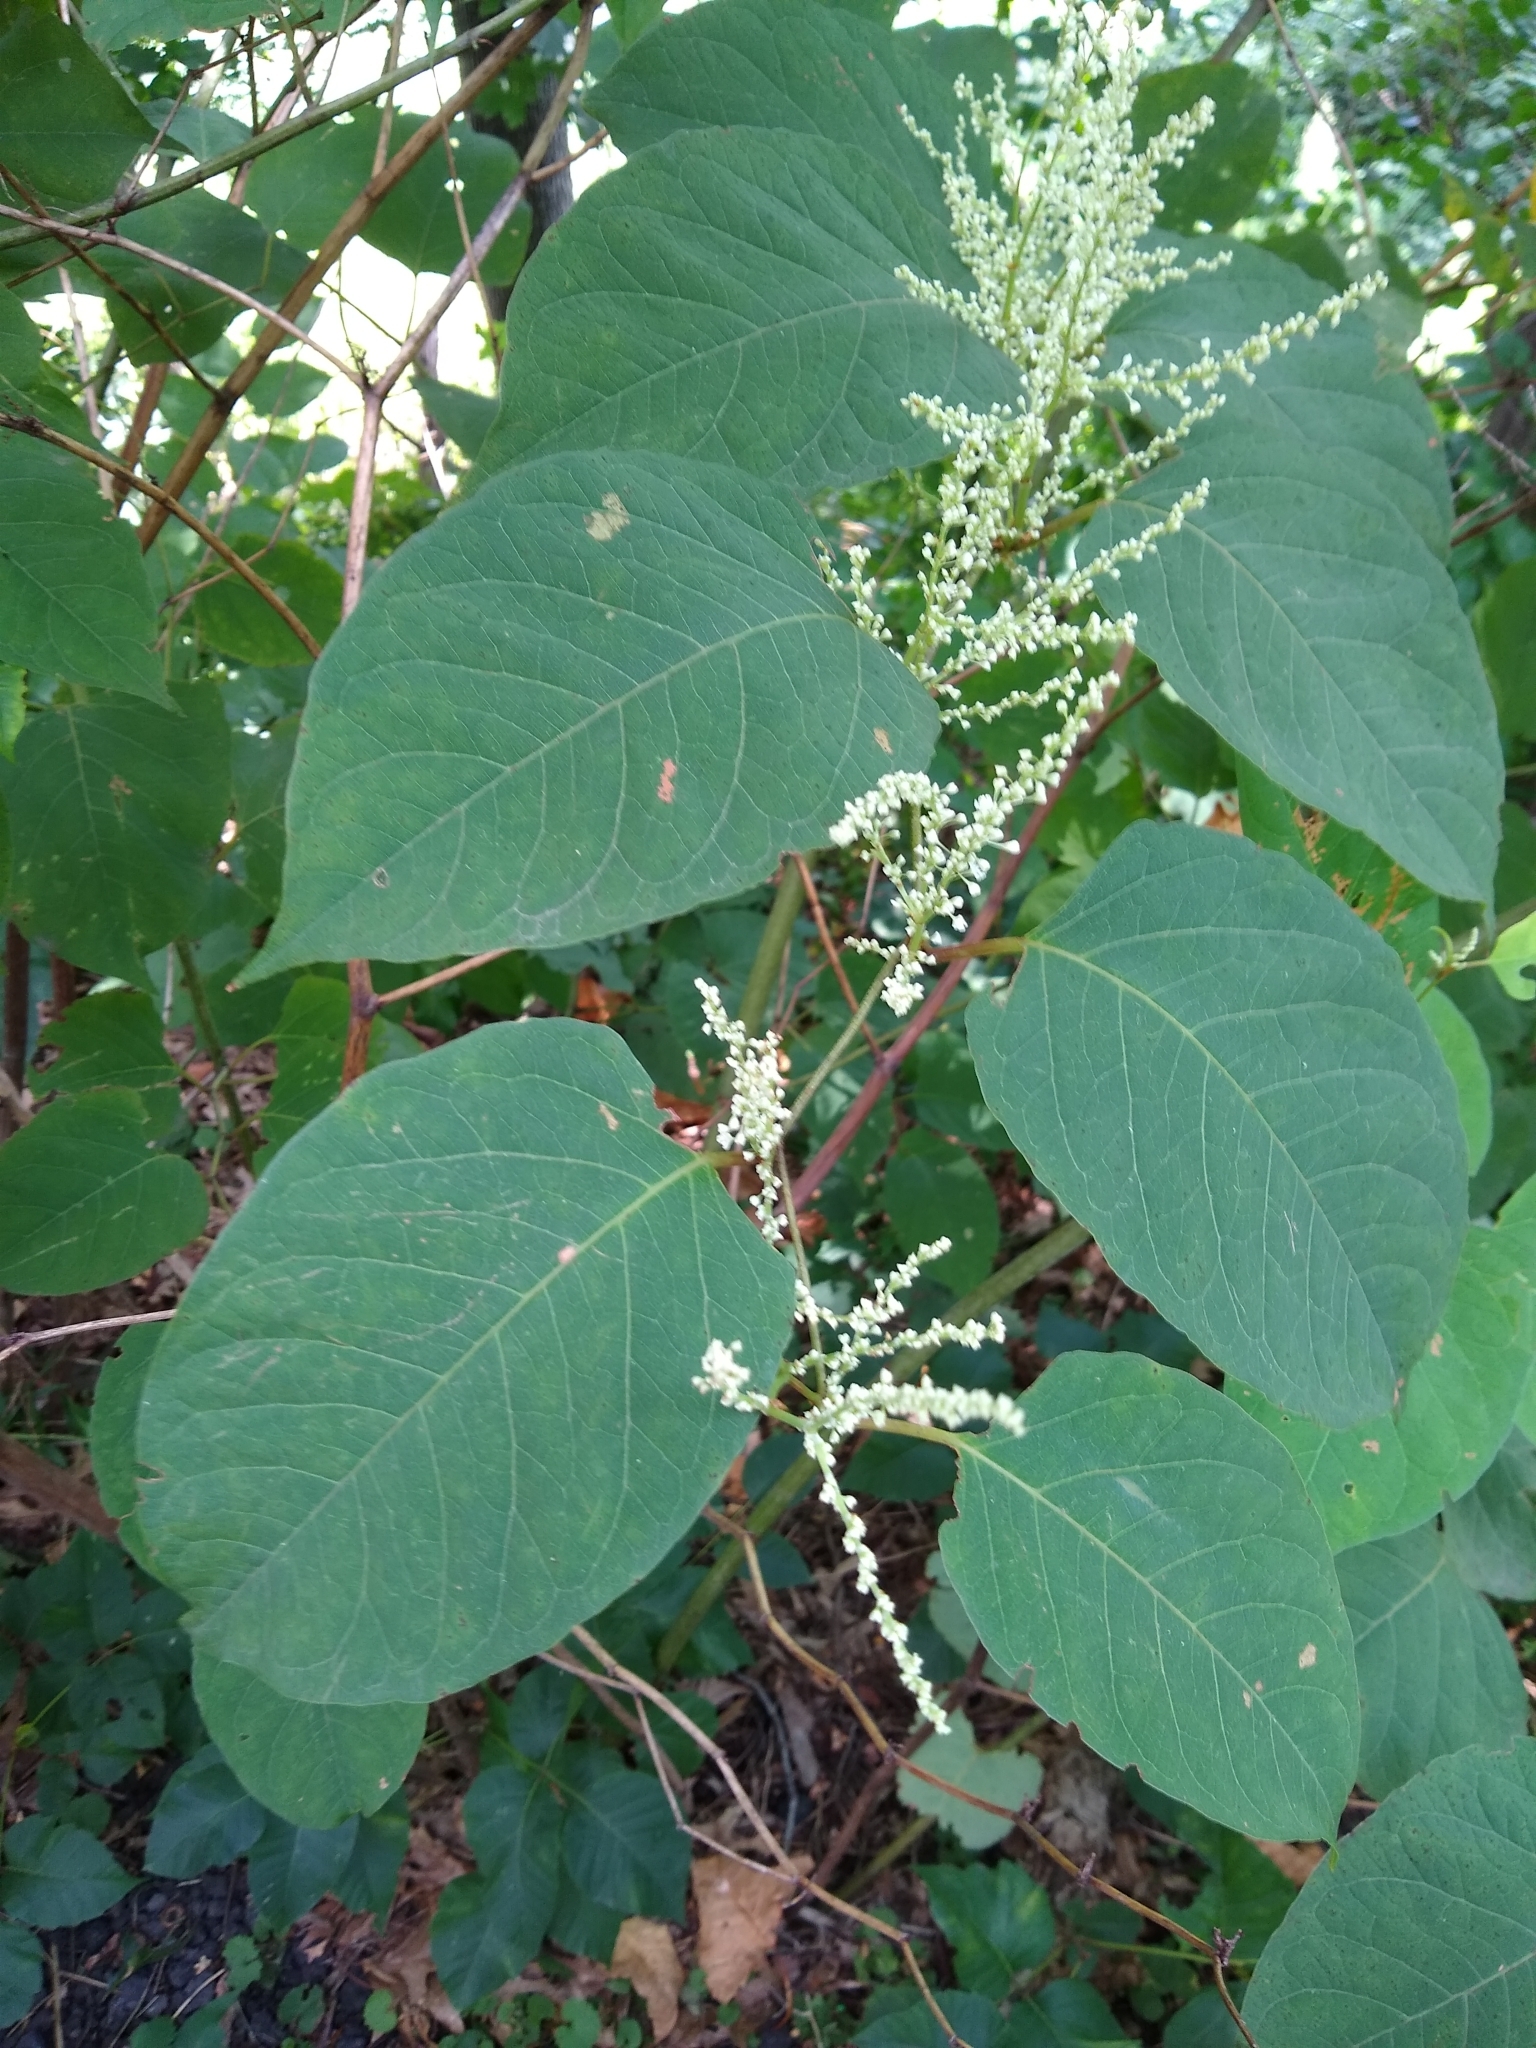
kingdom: Plantae
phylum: Tracheophyta
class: Magnoliopsida
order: Caryophyllales
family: Polygonaceae
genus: Reynoutria
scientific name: Reynoutria japonica
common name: Japanese knotweed
